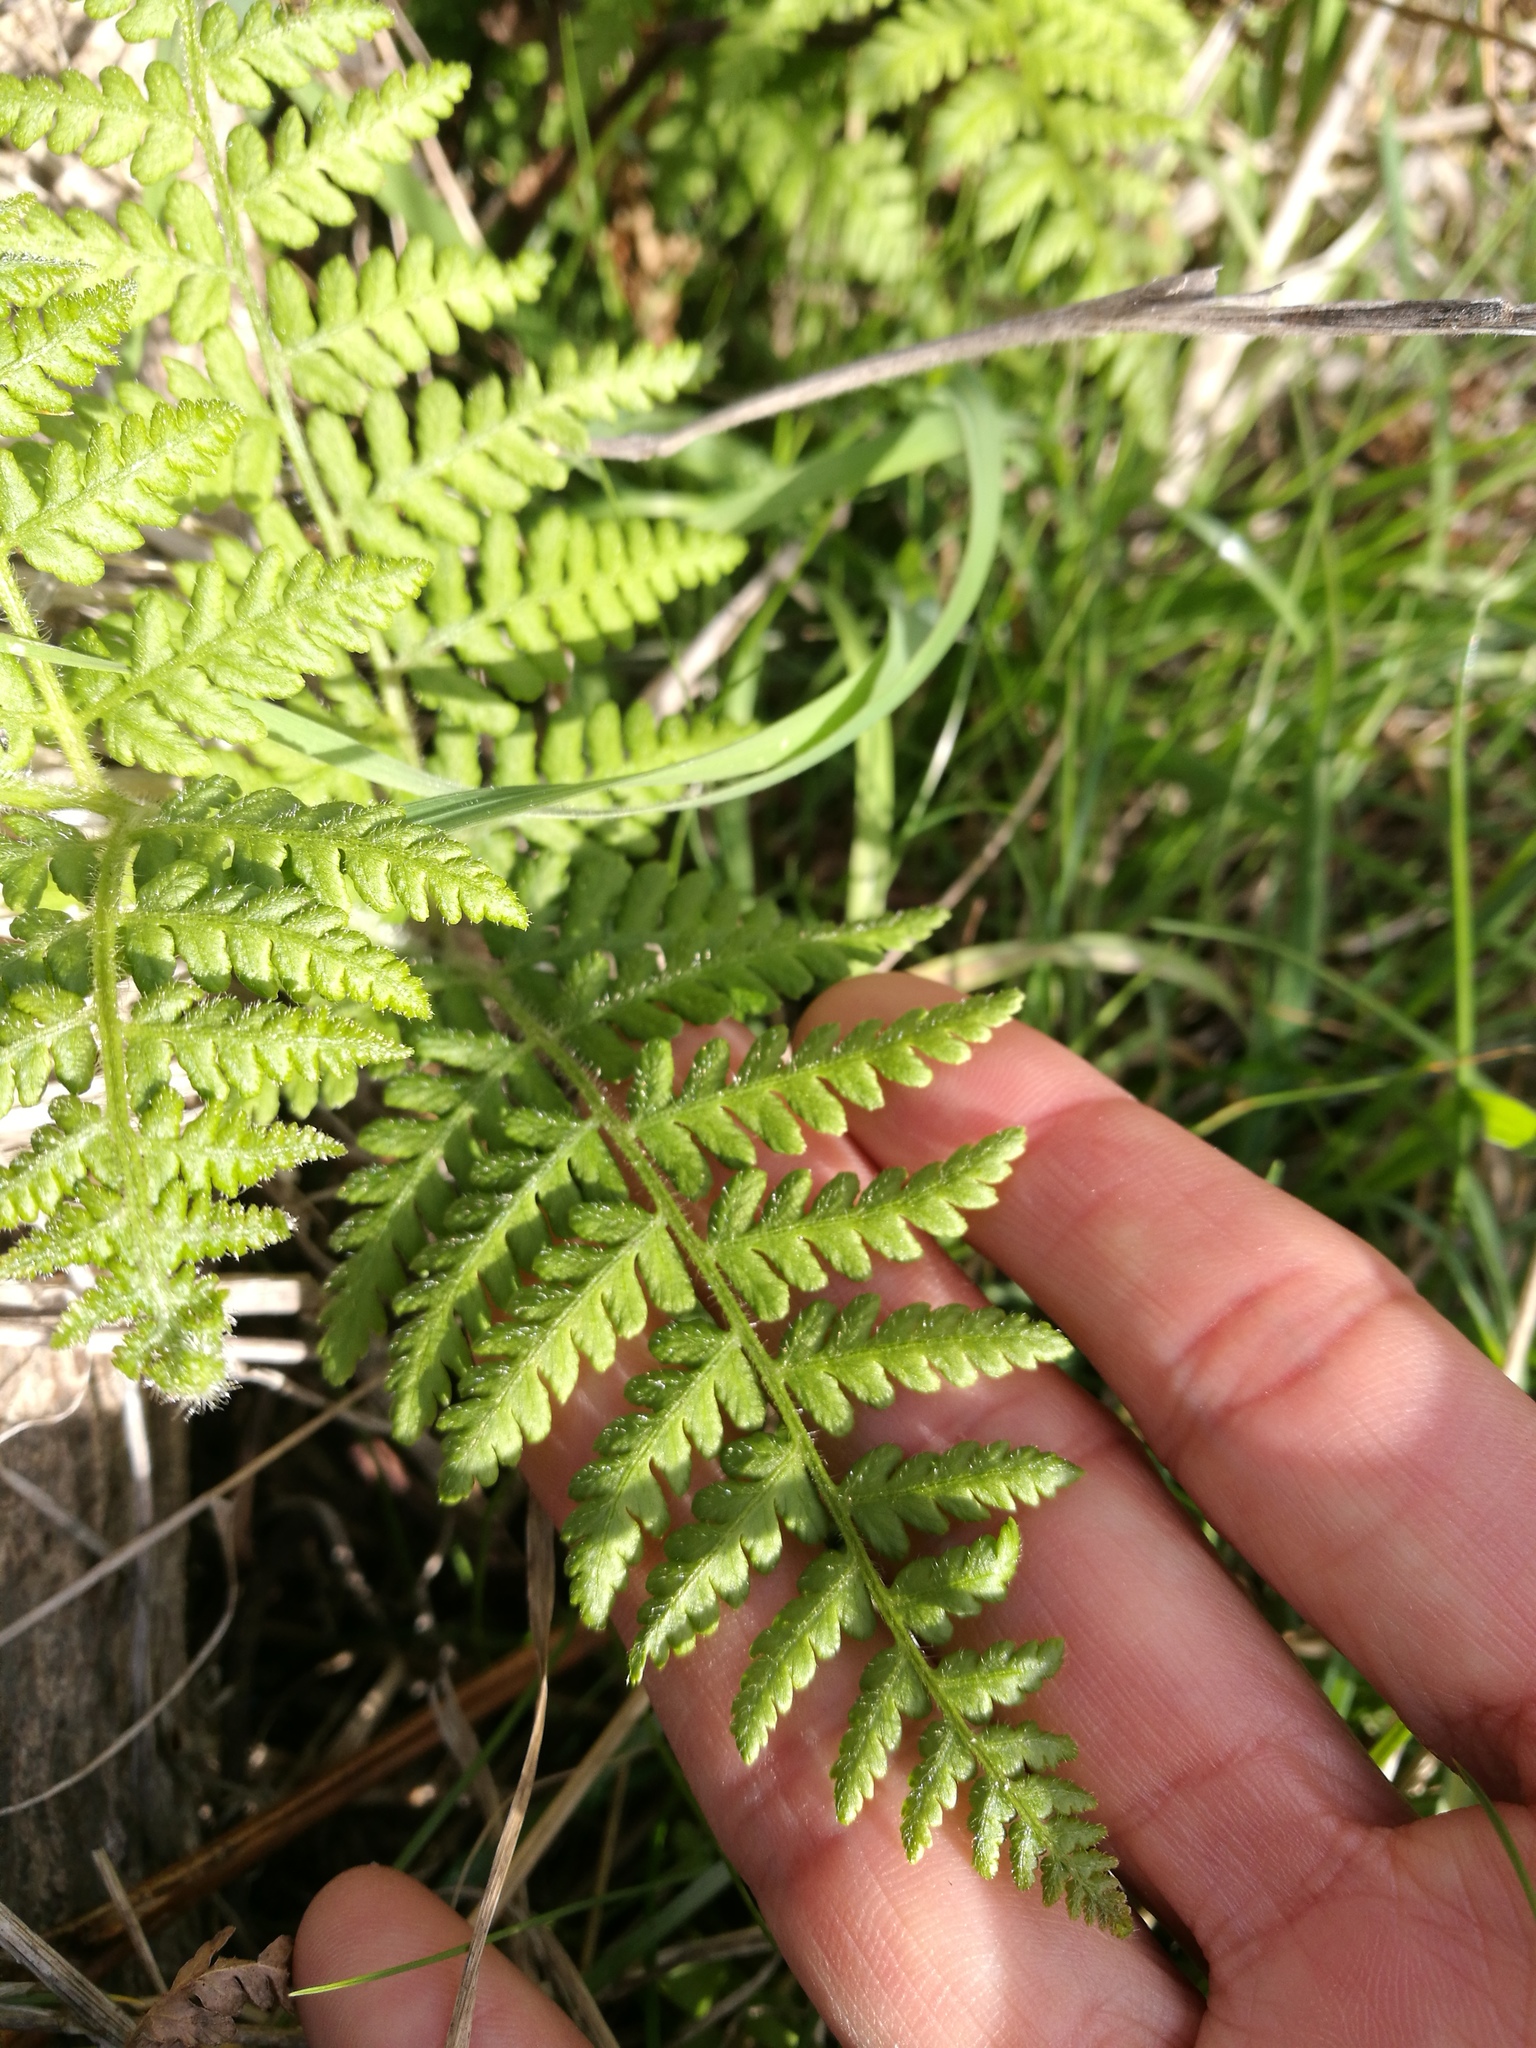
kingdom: Plantae
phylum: Tracheophyta
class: Polypodiopsida
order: Polypodiales
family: Dennstaedtiaceae
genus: Hypolepis
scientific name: Hypolepis ambigua
